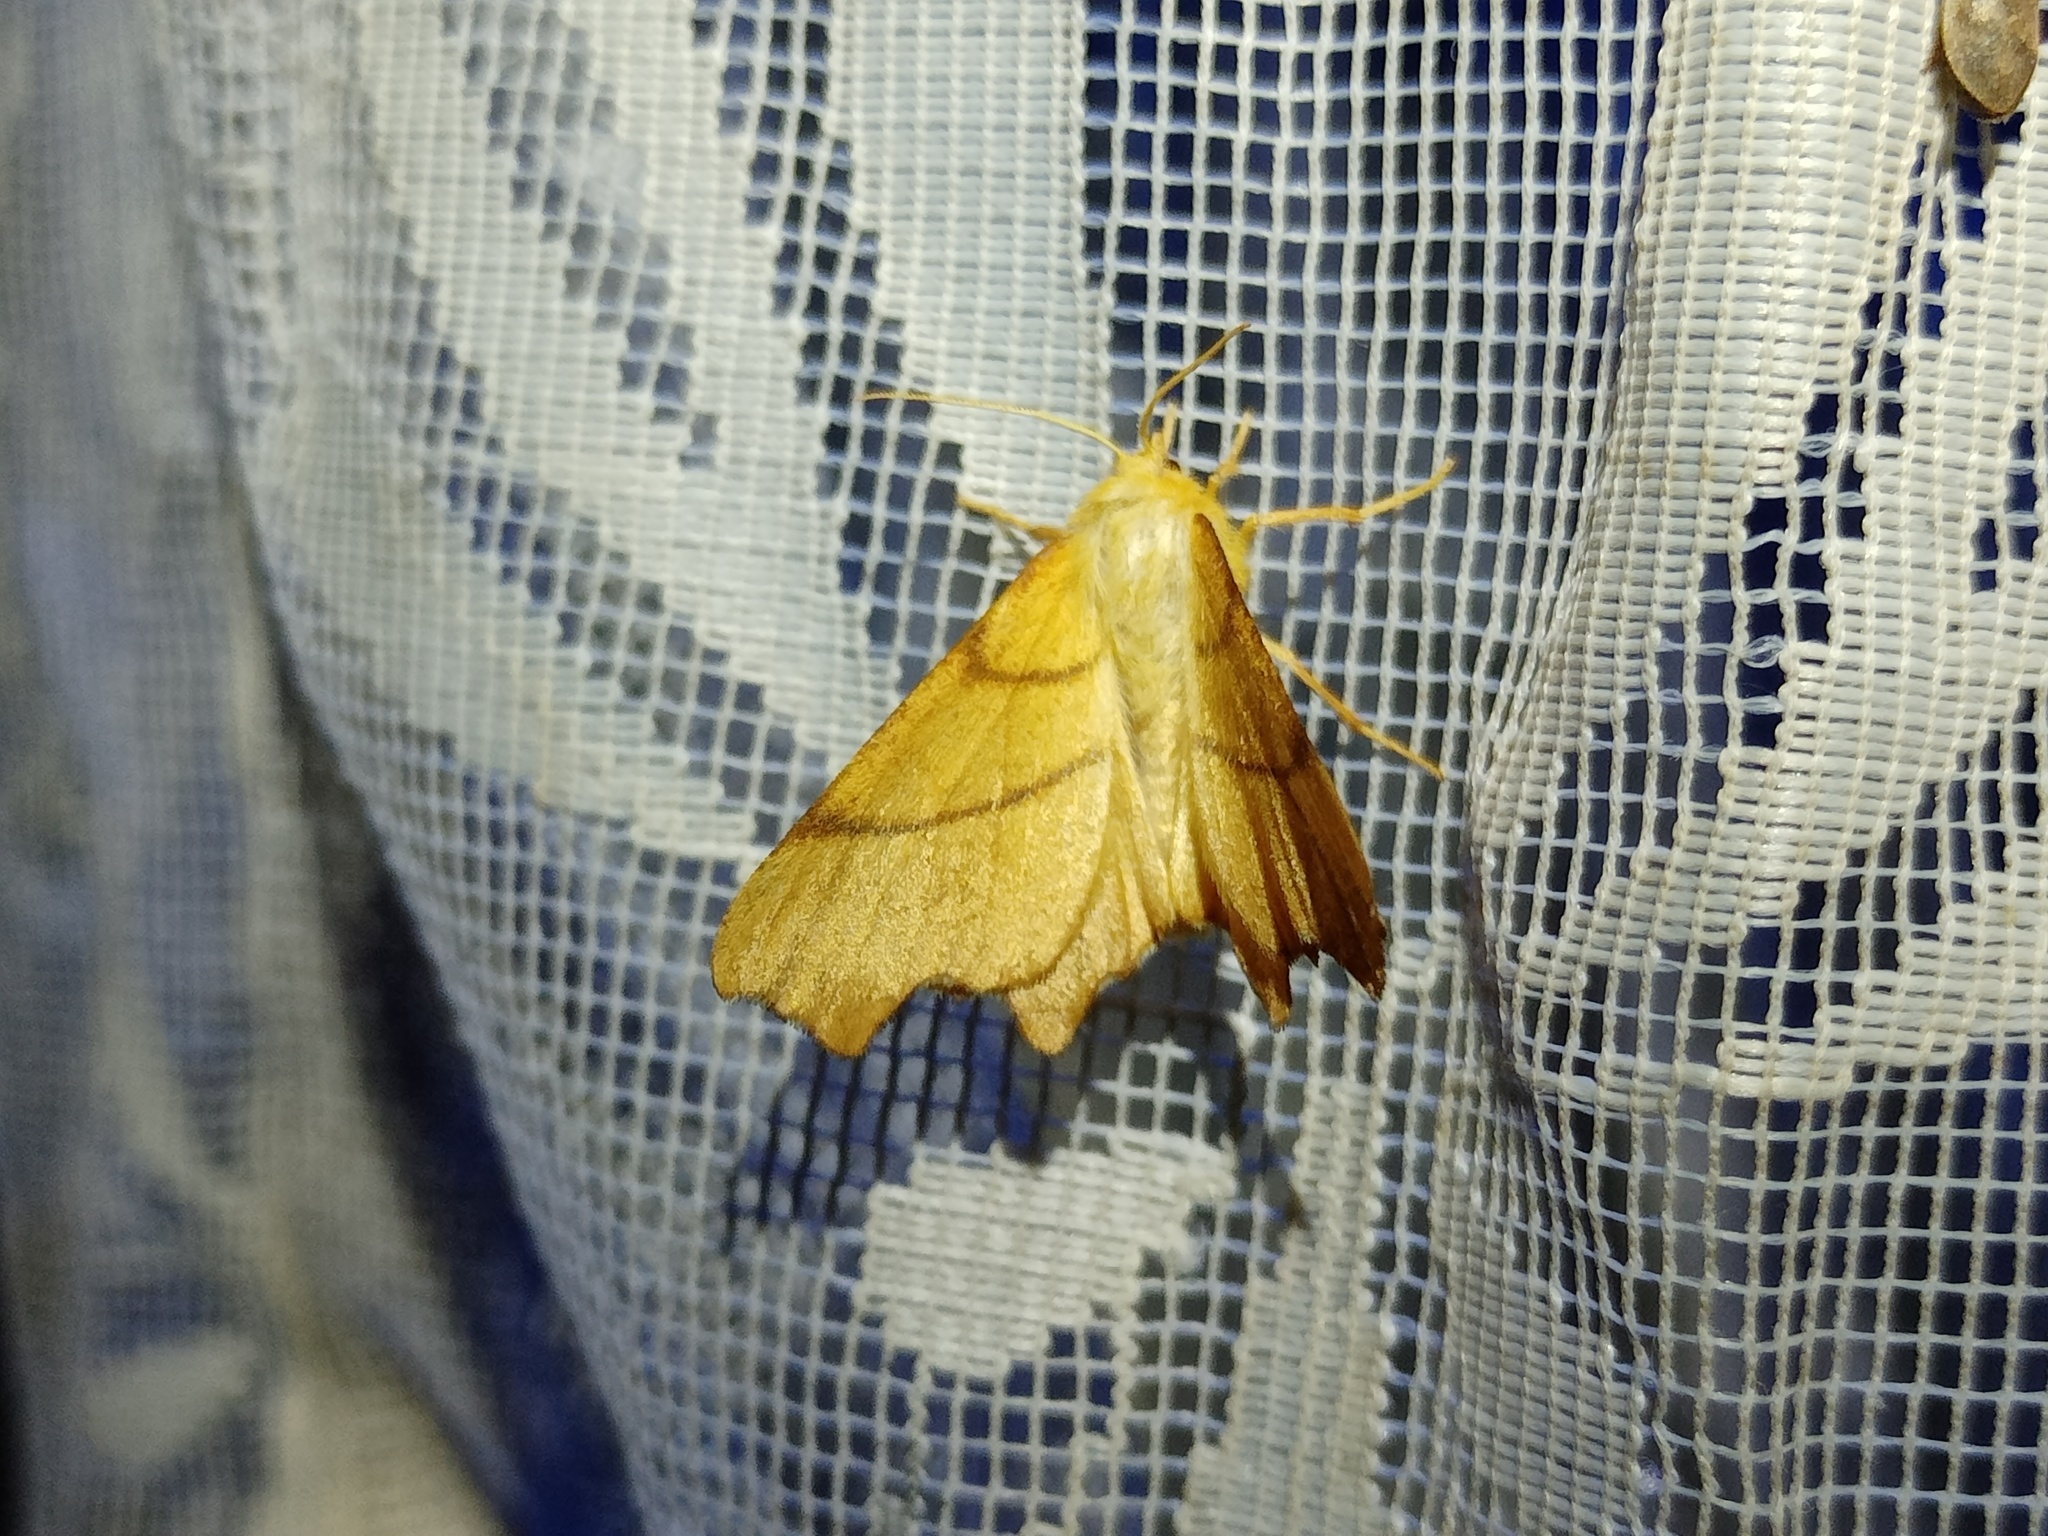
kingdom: Animalia
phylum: Arthropoda
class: Insecta
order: Lepidoptera
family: Geometridae
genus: Ennomos
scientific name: Ennomos erosaria
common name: September thorn
